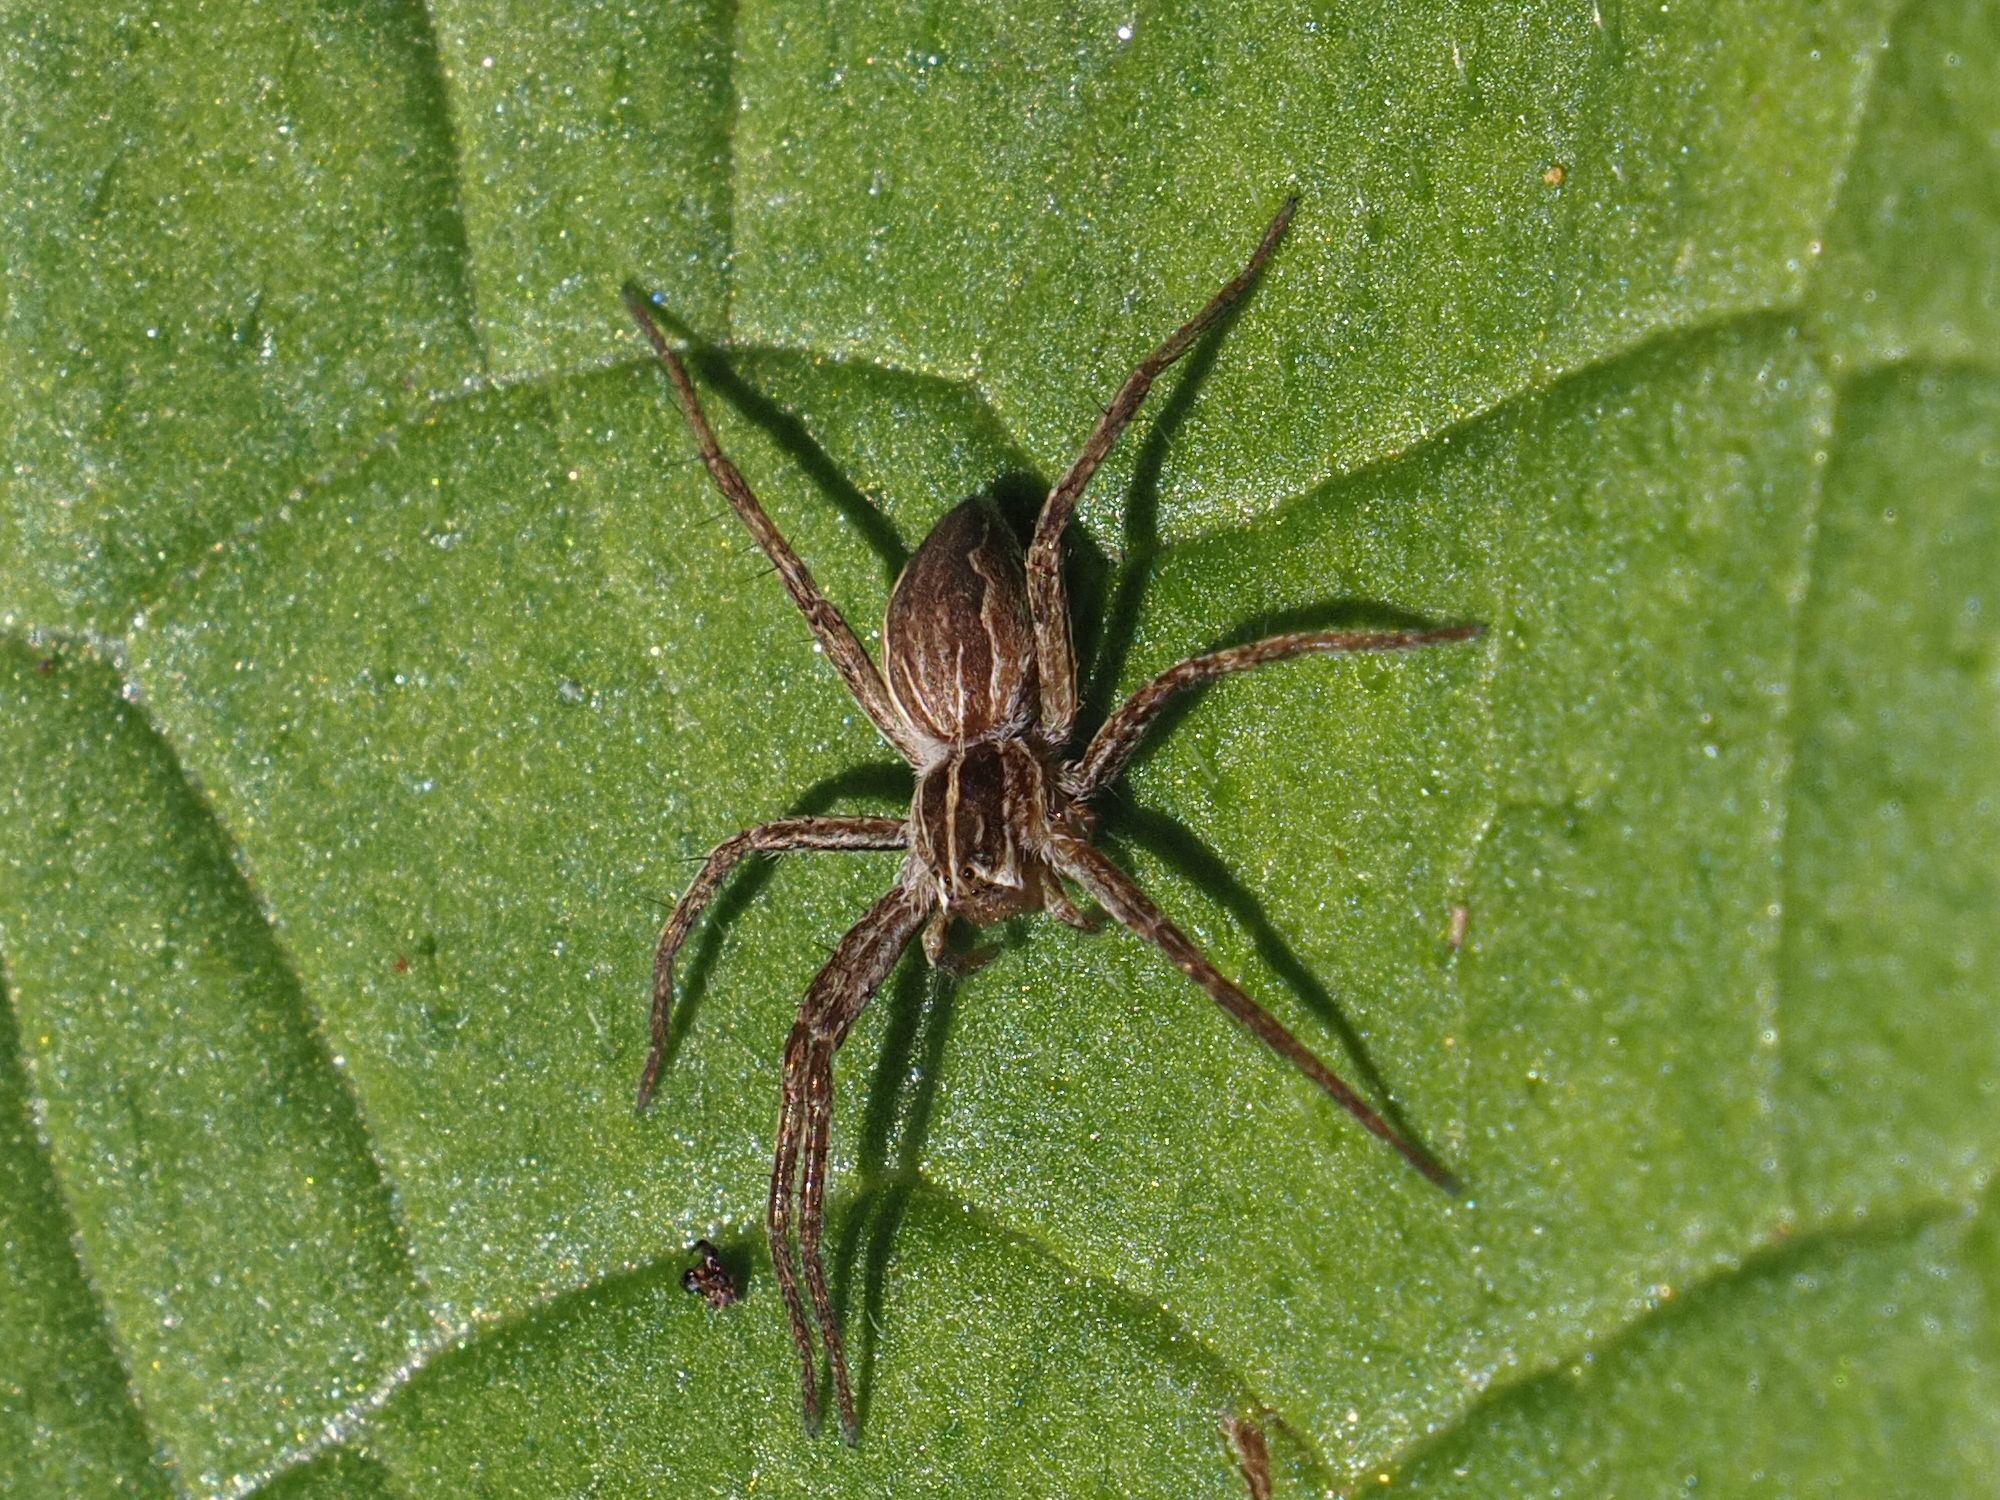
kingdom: Animalia
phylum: Arthropoda
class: Arachnida
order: Araneae
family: Pisauridae
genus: Pisaura
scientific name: Pisaura mirabilis
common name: Tent spider
